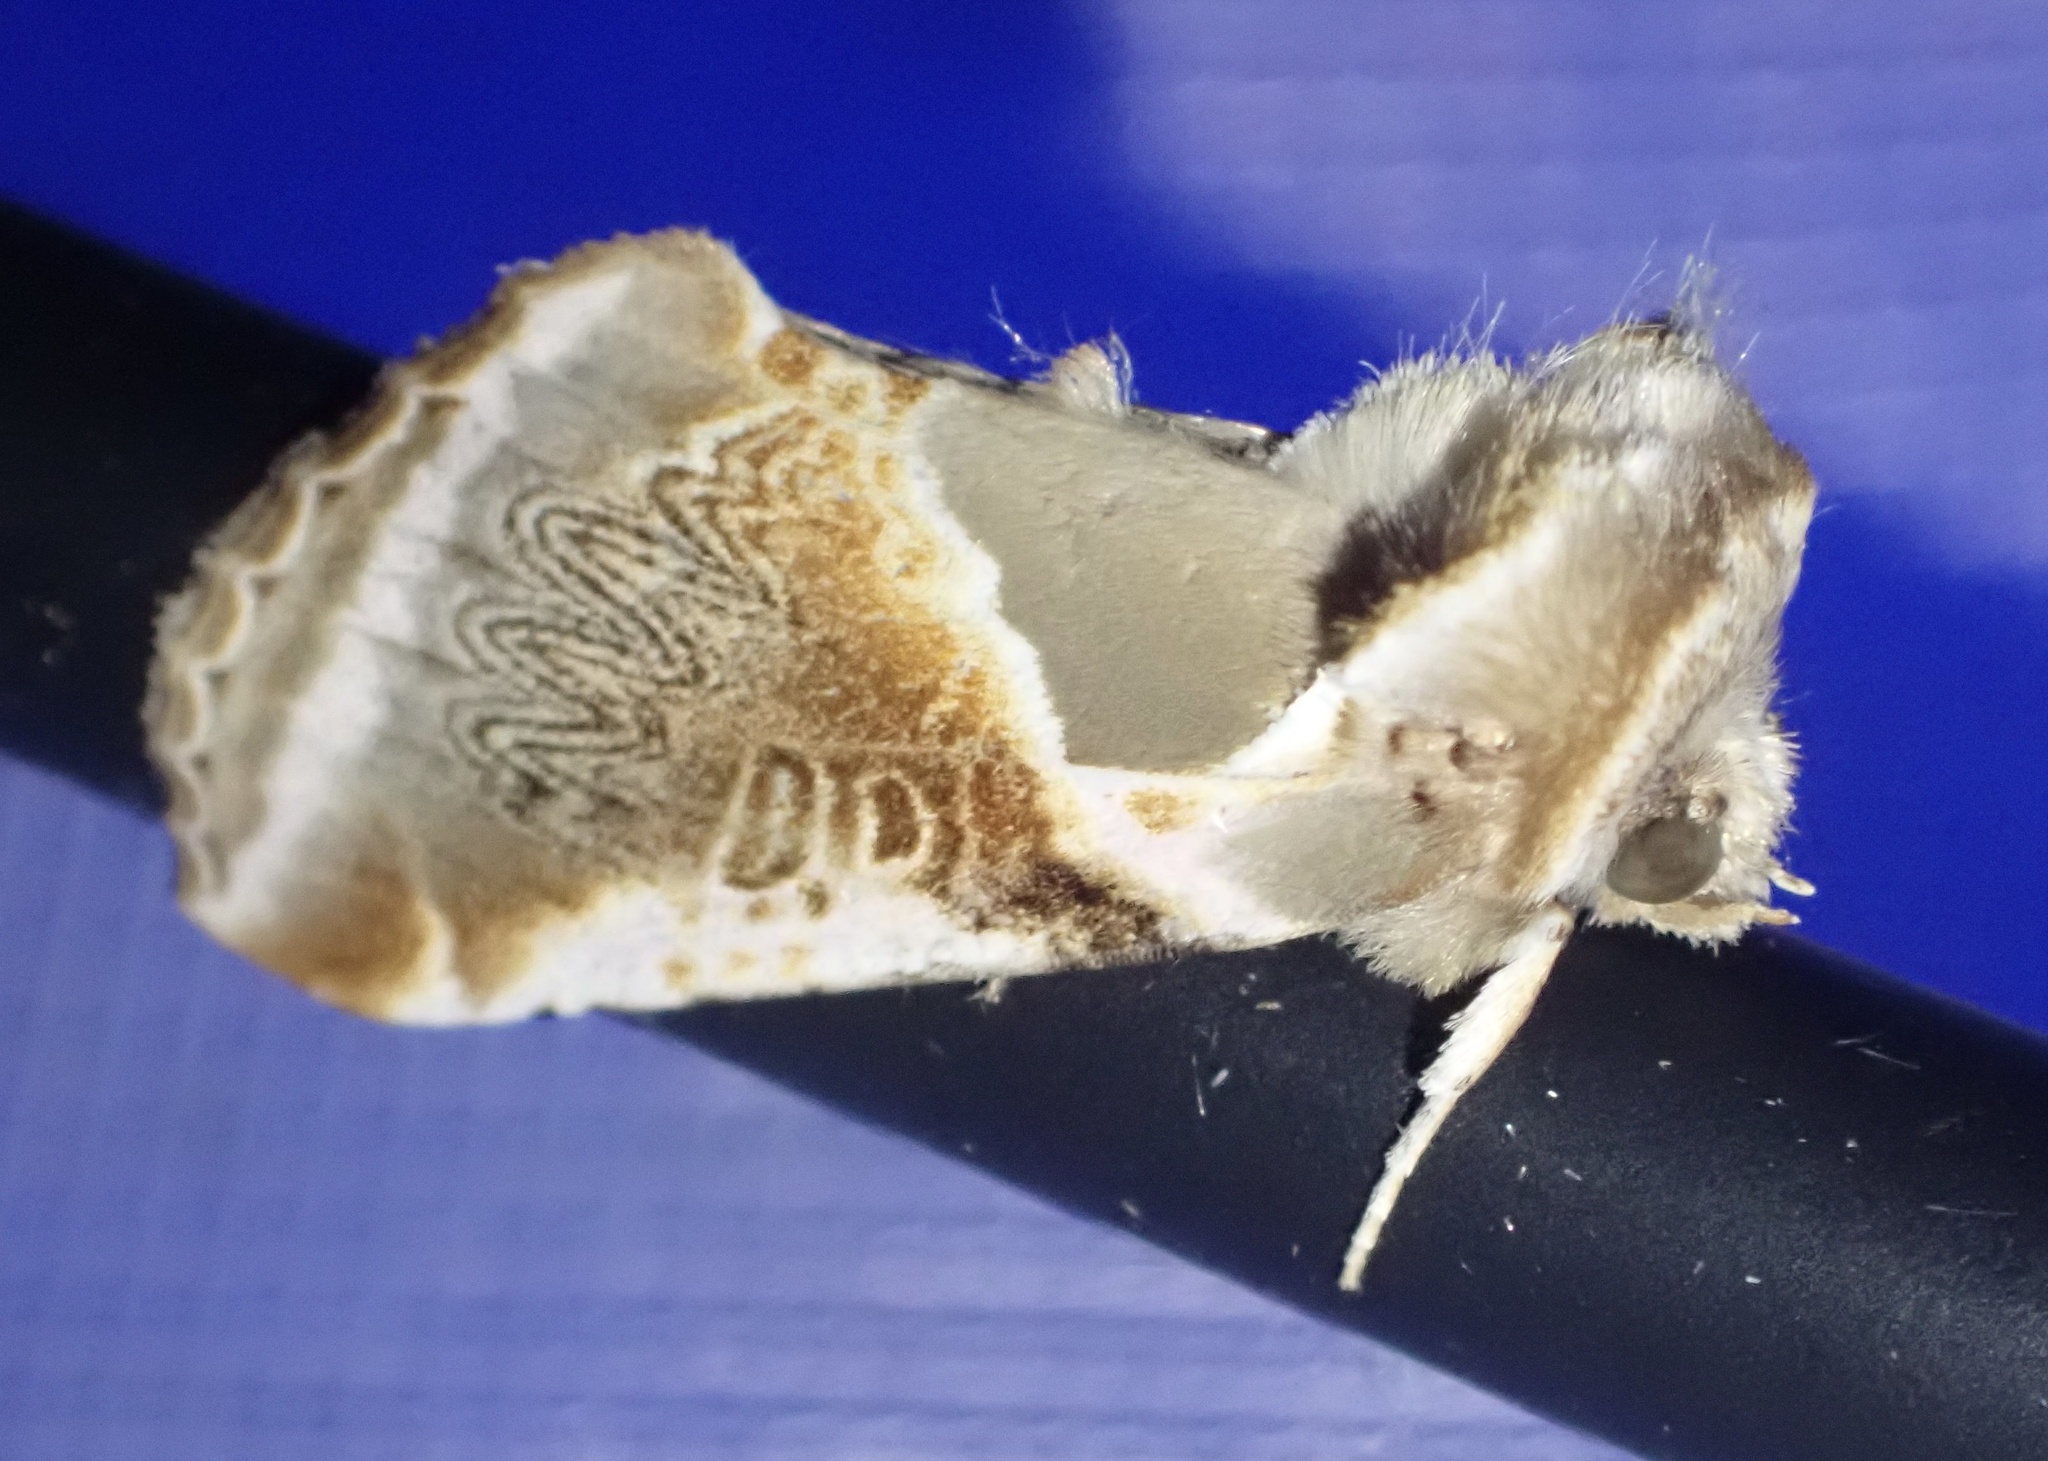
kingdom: Animalia
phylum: Arthropoda
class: Insecta
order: Lepidoptera
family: Drepanidae
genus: Habrosyne
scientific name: Habrosyne pyritoides
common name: Buff arches
